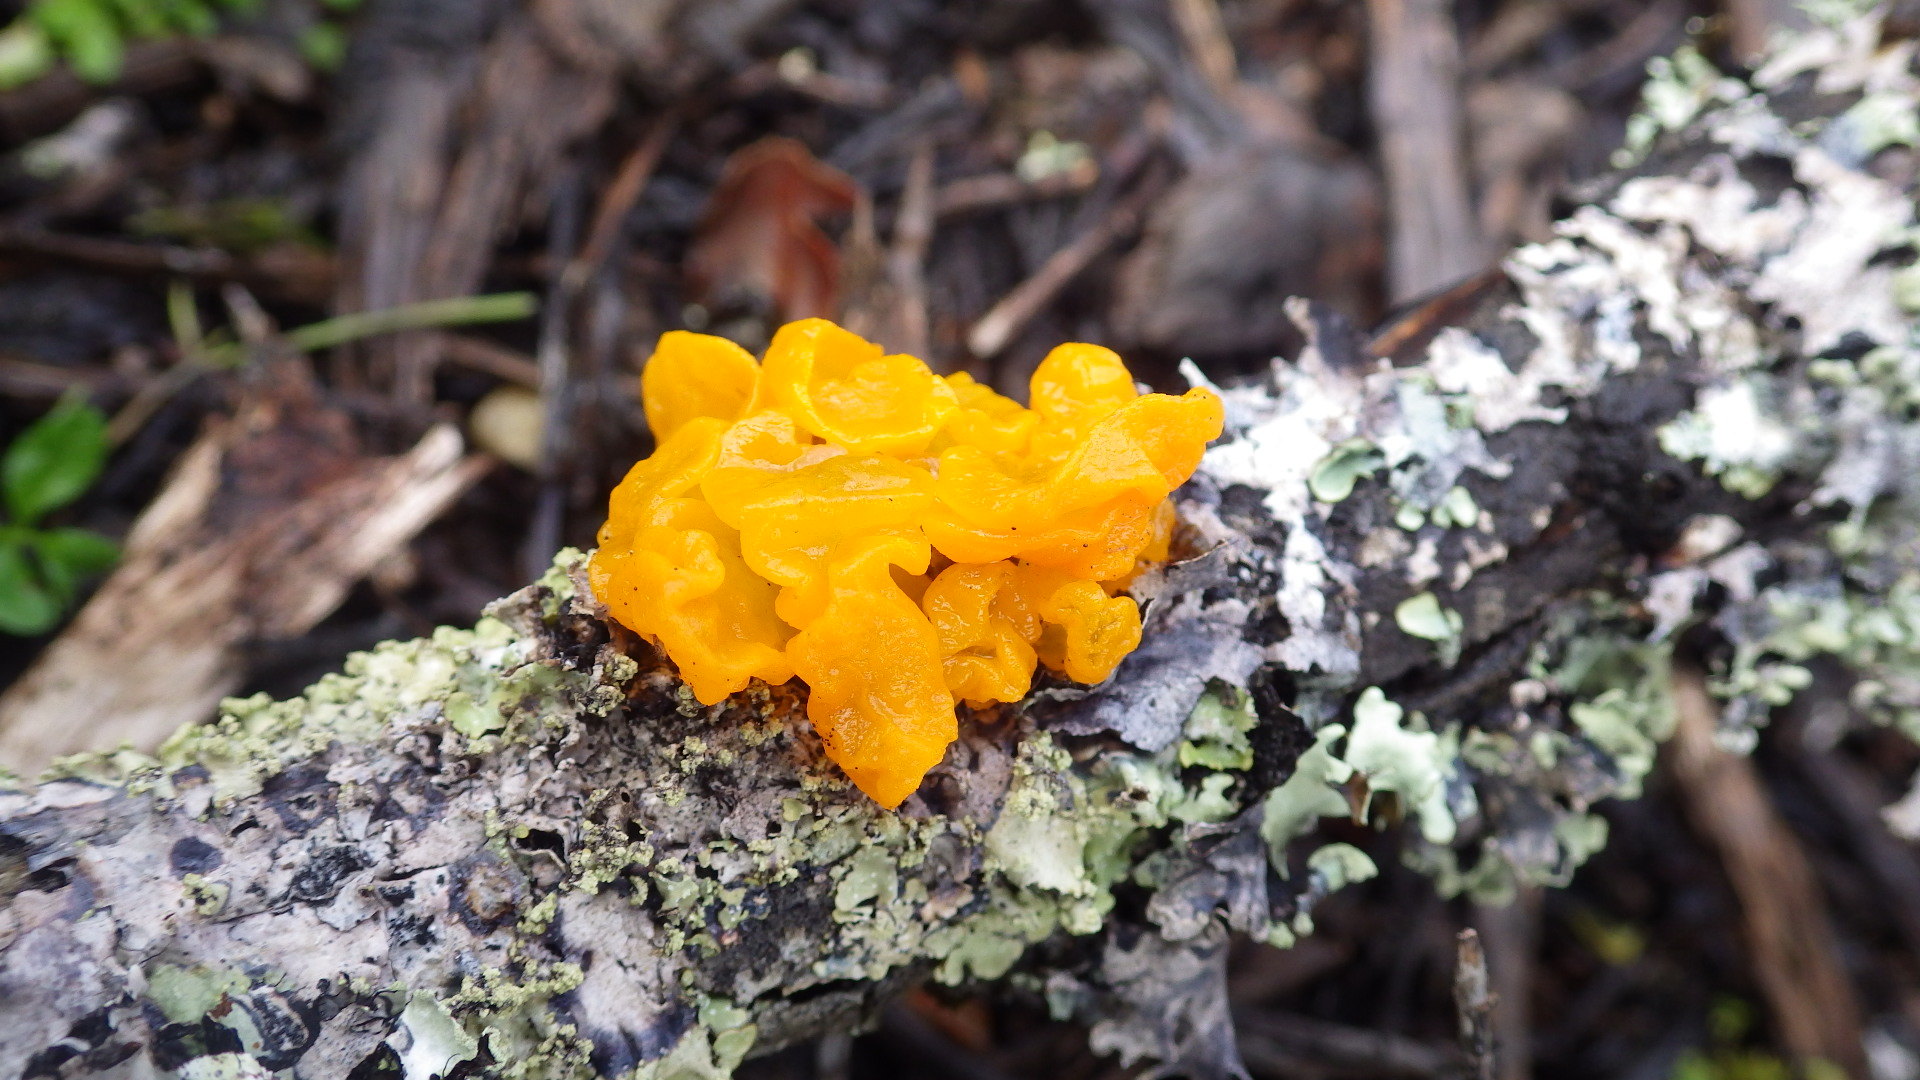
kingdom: Fungi
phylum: Basidiomycota
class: Tremellomycetes
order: Tremellales
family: Tremellaceae
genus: Tremella
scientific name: Tremella mesenterica
